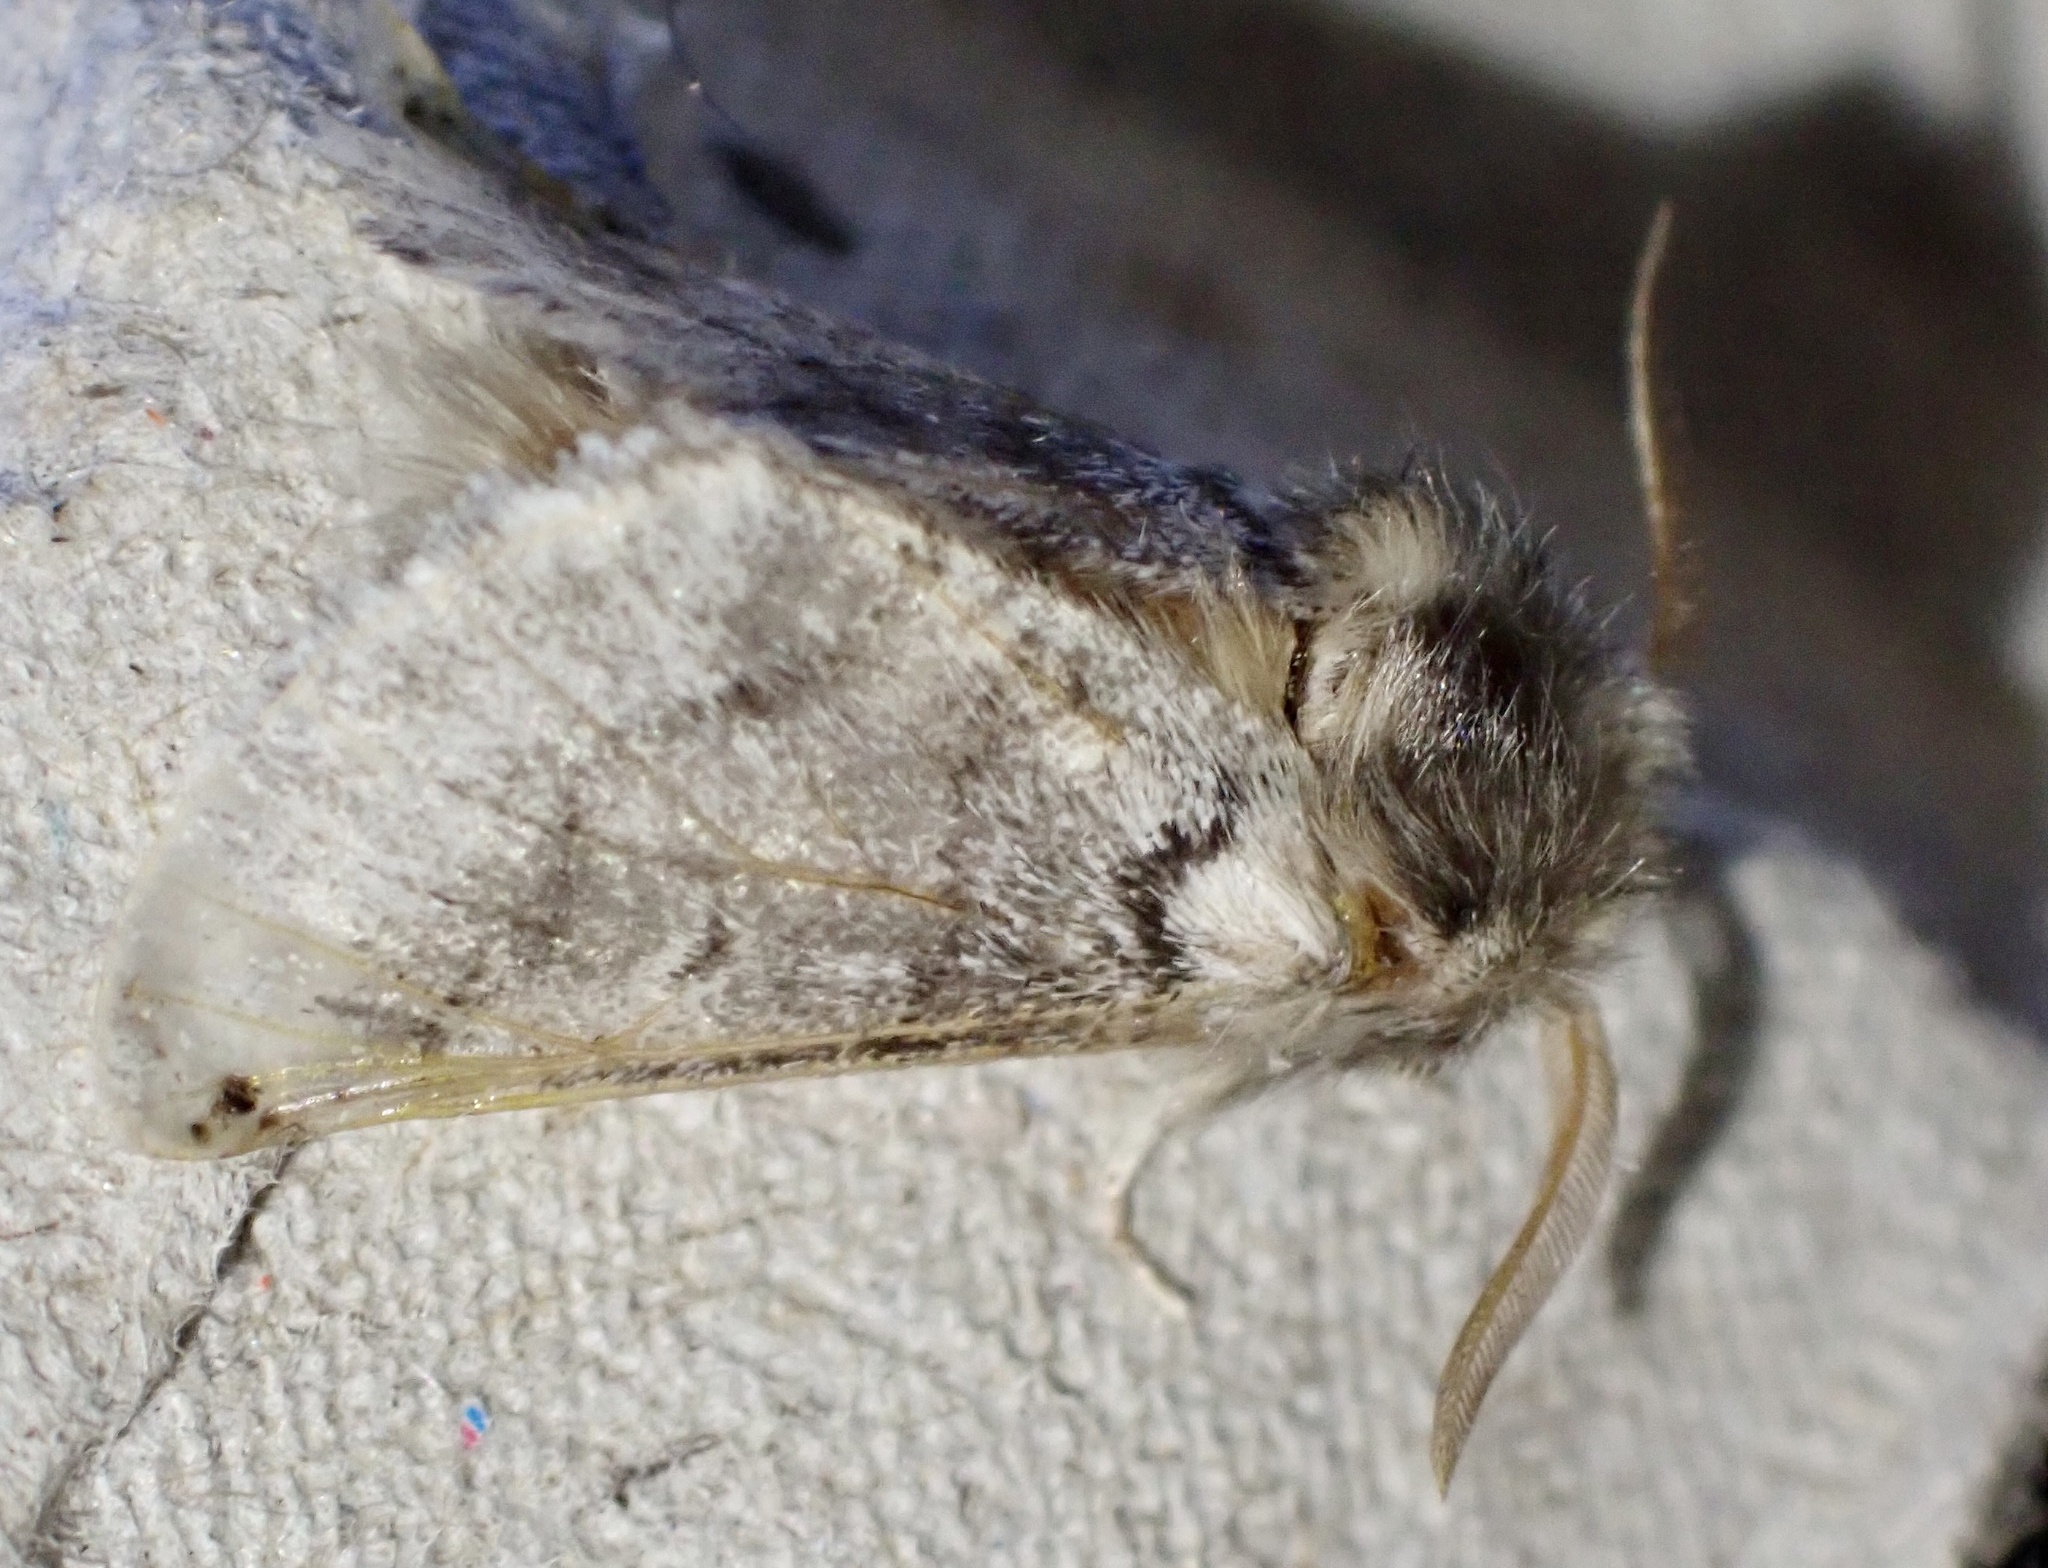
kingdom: Animalia
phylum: Arthropoda
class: Insecta
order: Lepidoptera
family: Notodontidae
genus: Thaumetopoea
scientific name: Thaumetopoea processionea
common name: Oak processionea
